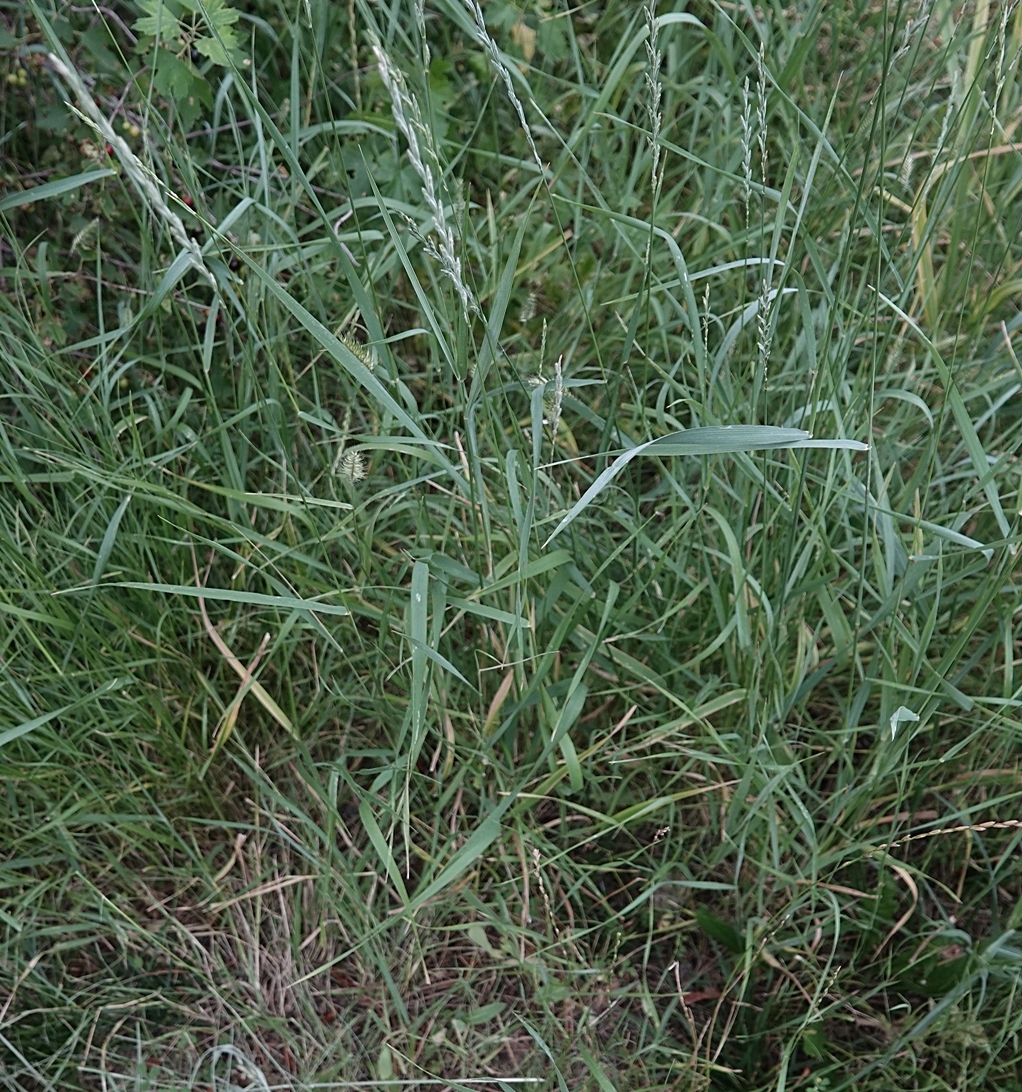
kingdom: Plantae
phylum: Tracheophyta
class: Liliopsida
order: Poales
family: Poaceae
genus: Thinopyrum
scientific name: Thinopyrum intermedium
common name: Intermediate wheatgrass
